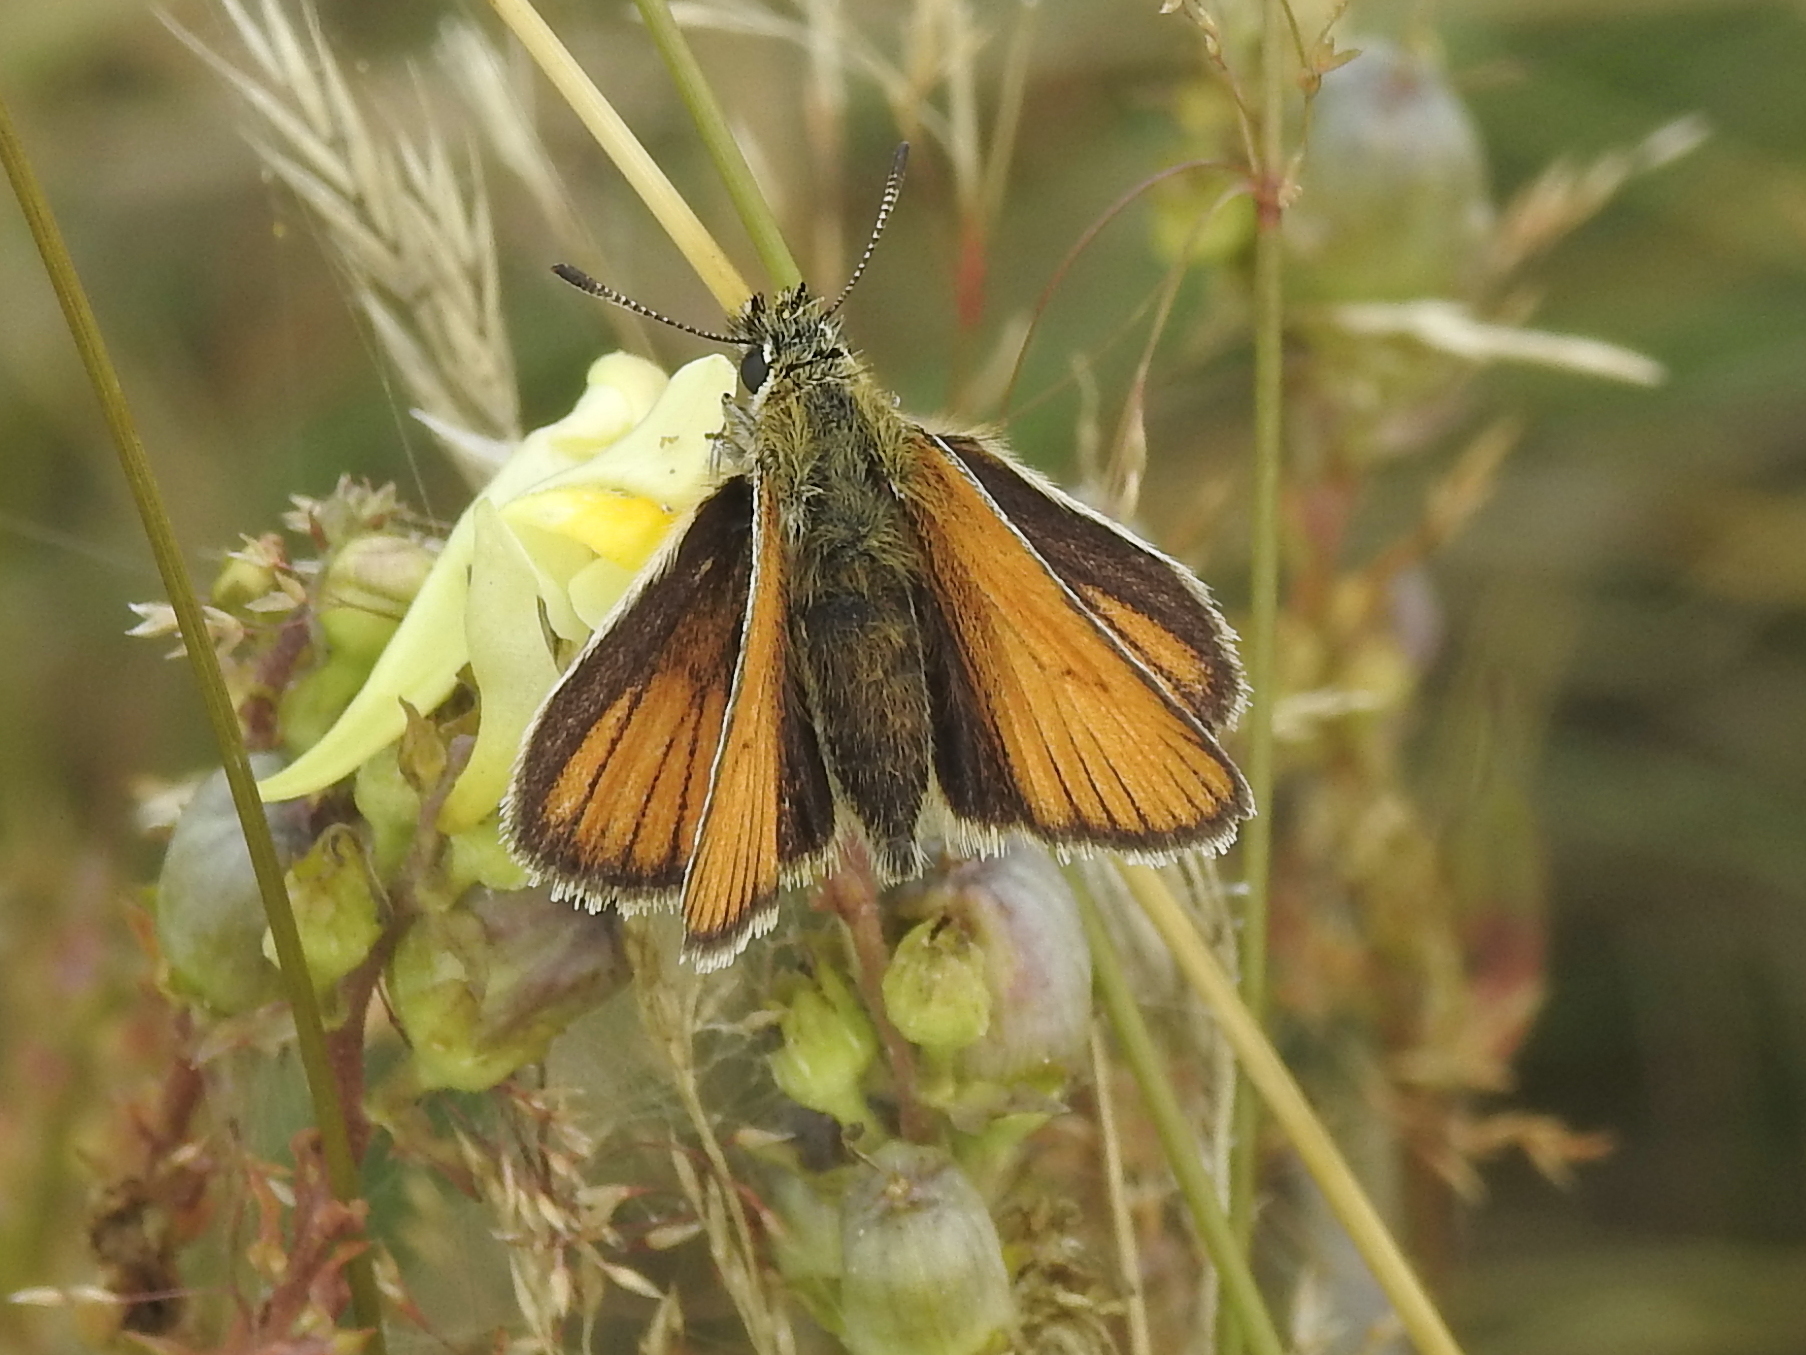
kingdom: Animalia
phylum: Arthropoda
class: Insecta
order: Lepidoptera
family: Hesperiidae
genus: Thymelicus
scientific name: Thymelicus lineola
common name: Essex skipper
